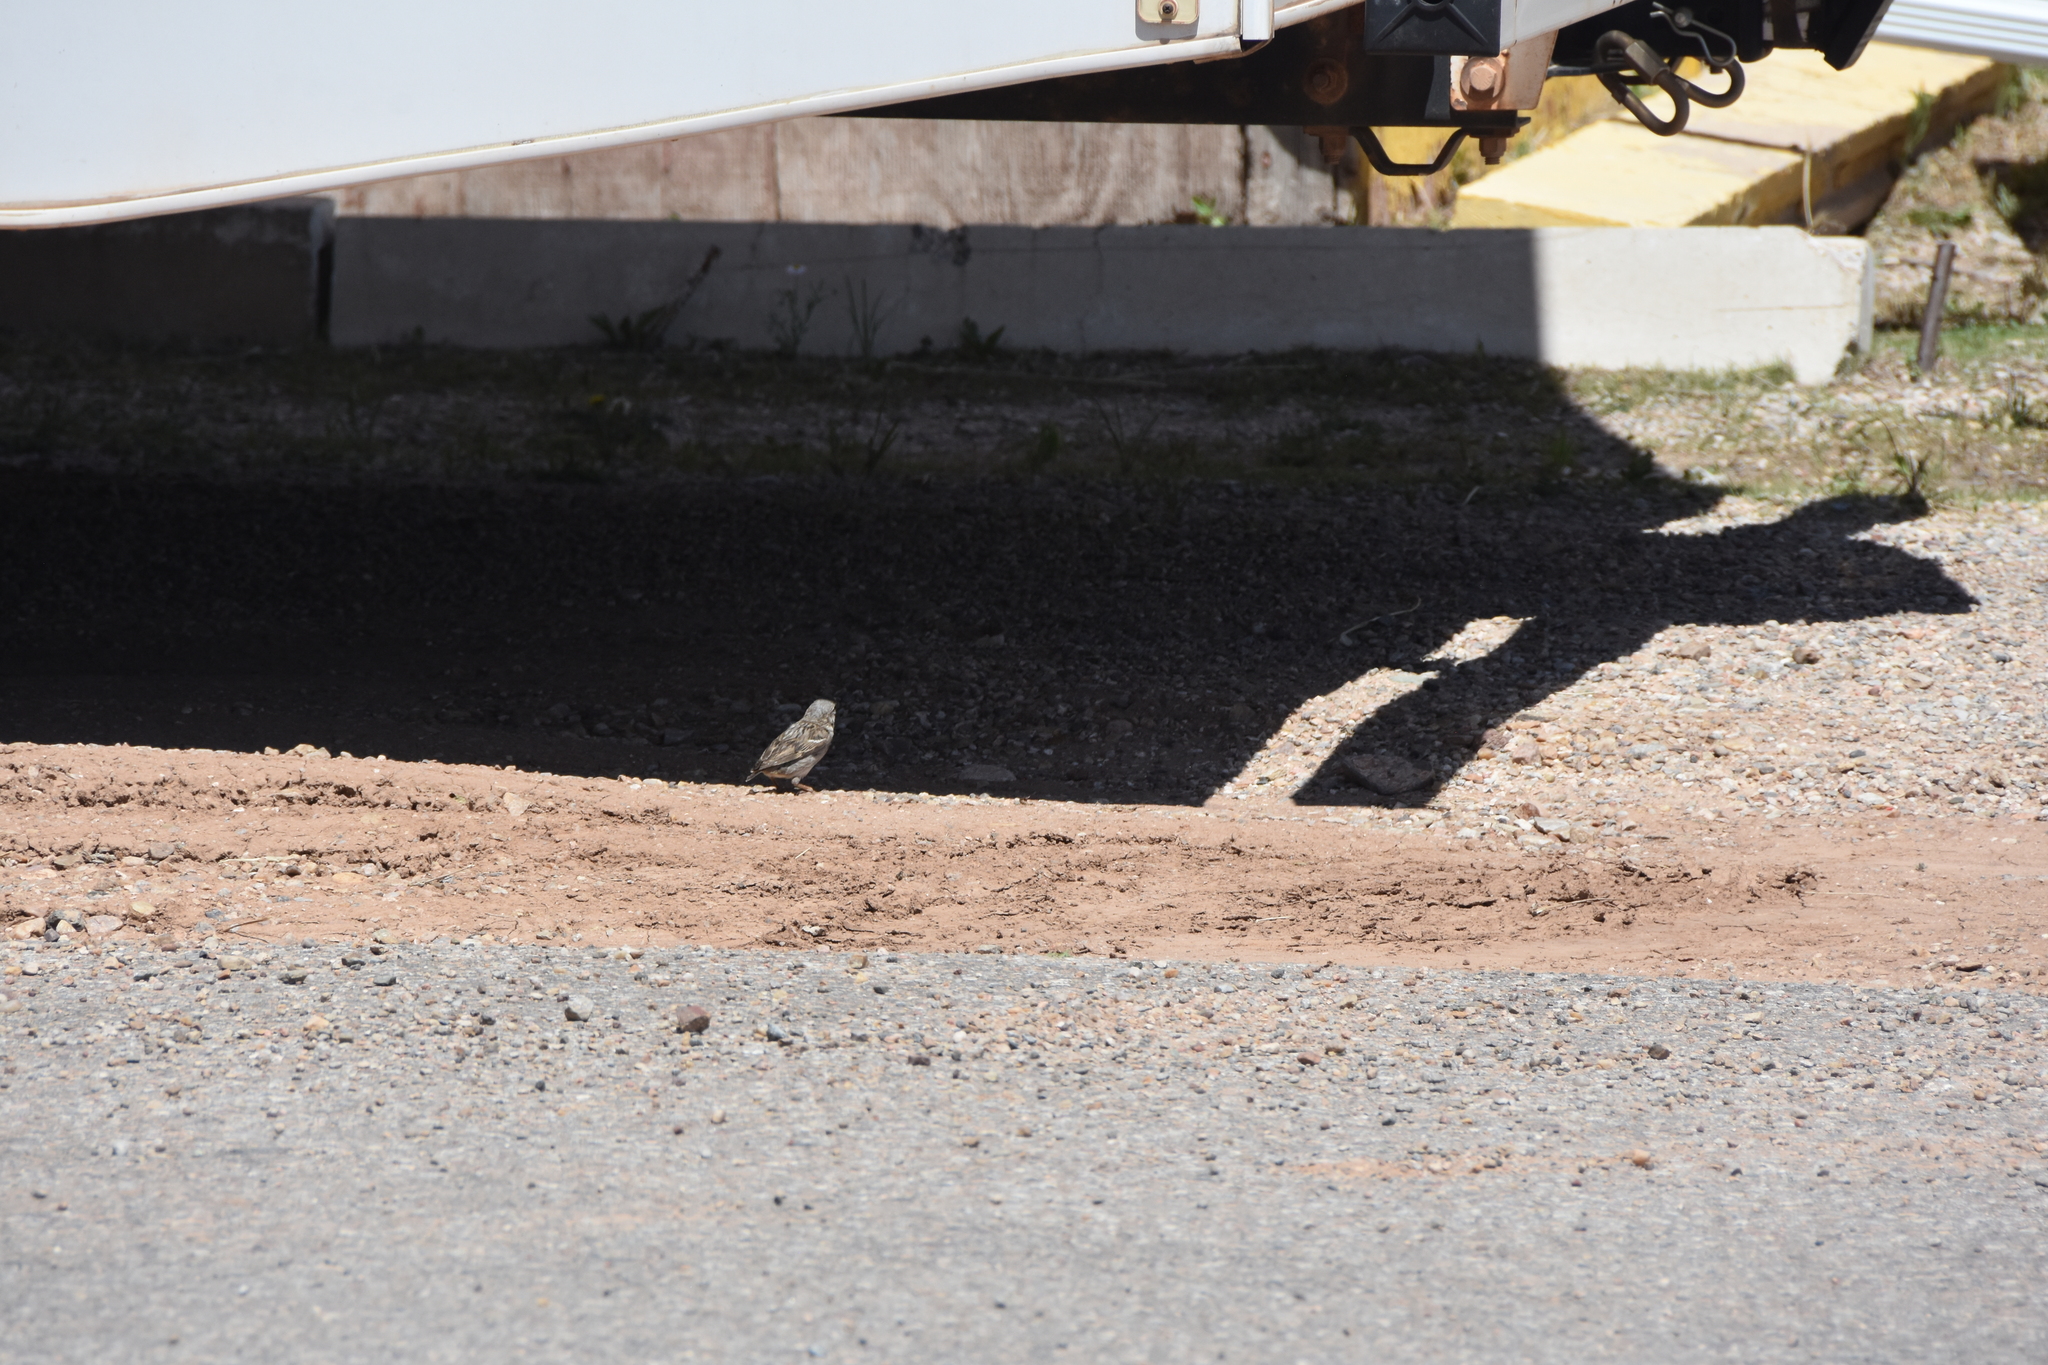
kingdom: Animalia
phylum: Chordata
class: Aves
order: Passeriformes
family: Passeridae
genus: Passer
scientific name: Passer domesticus
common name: House sparrow
